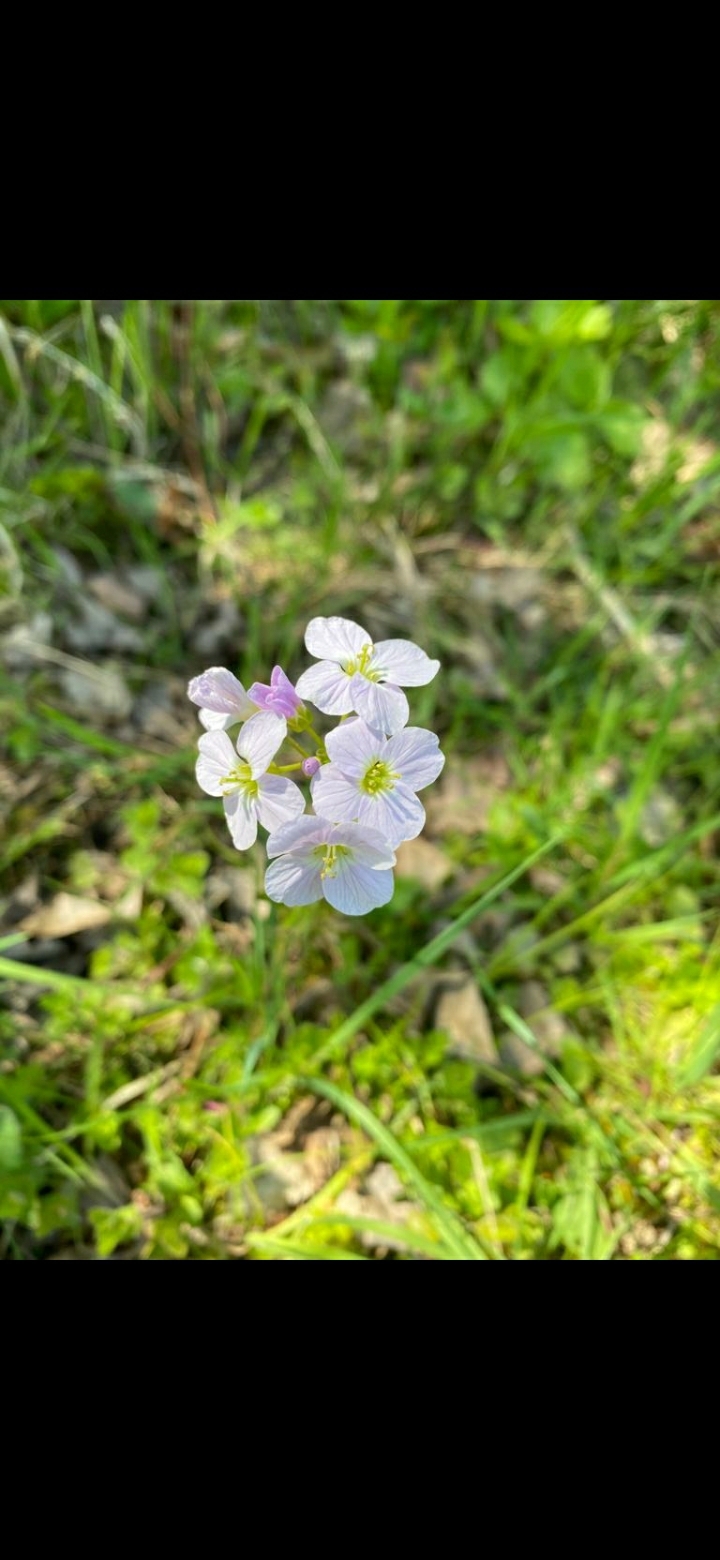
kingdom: Plantae
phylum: Tracheophyta
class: Magnoliopsida
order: Brassicales
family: Brassicaceae
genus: Cardamine
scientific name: Cardamine pratensis
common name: Cuckoo flower
